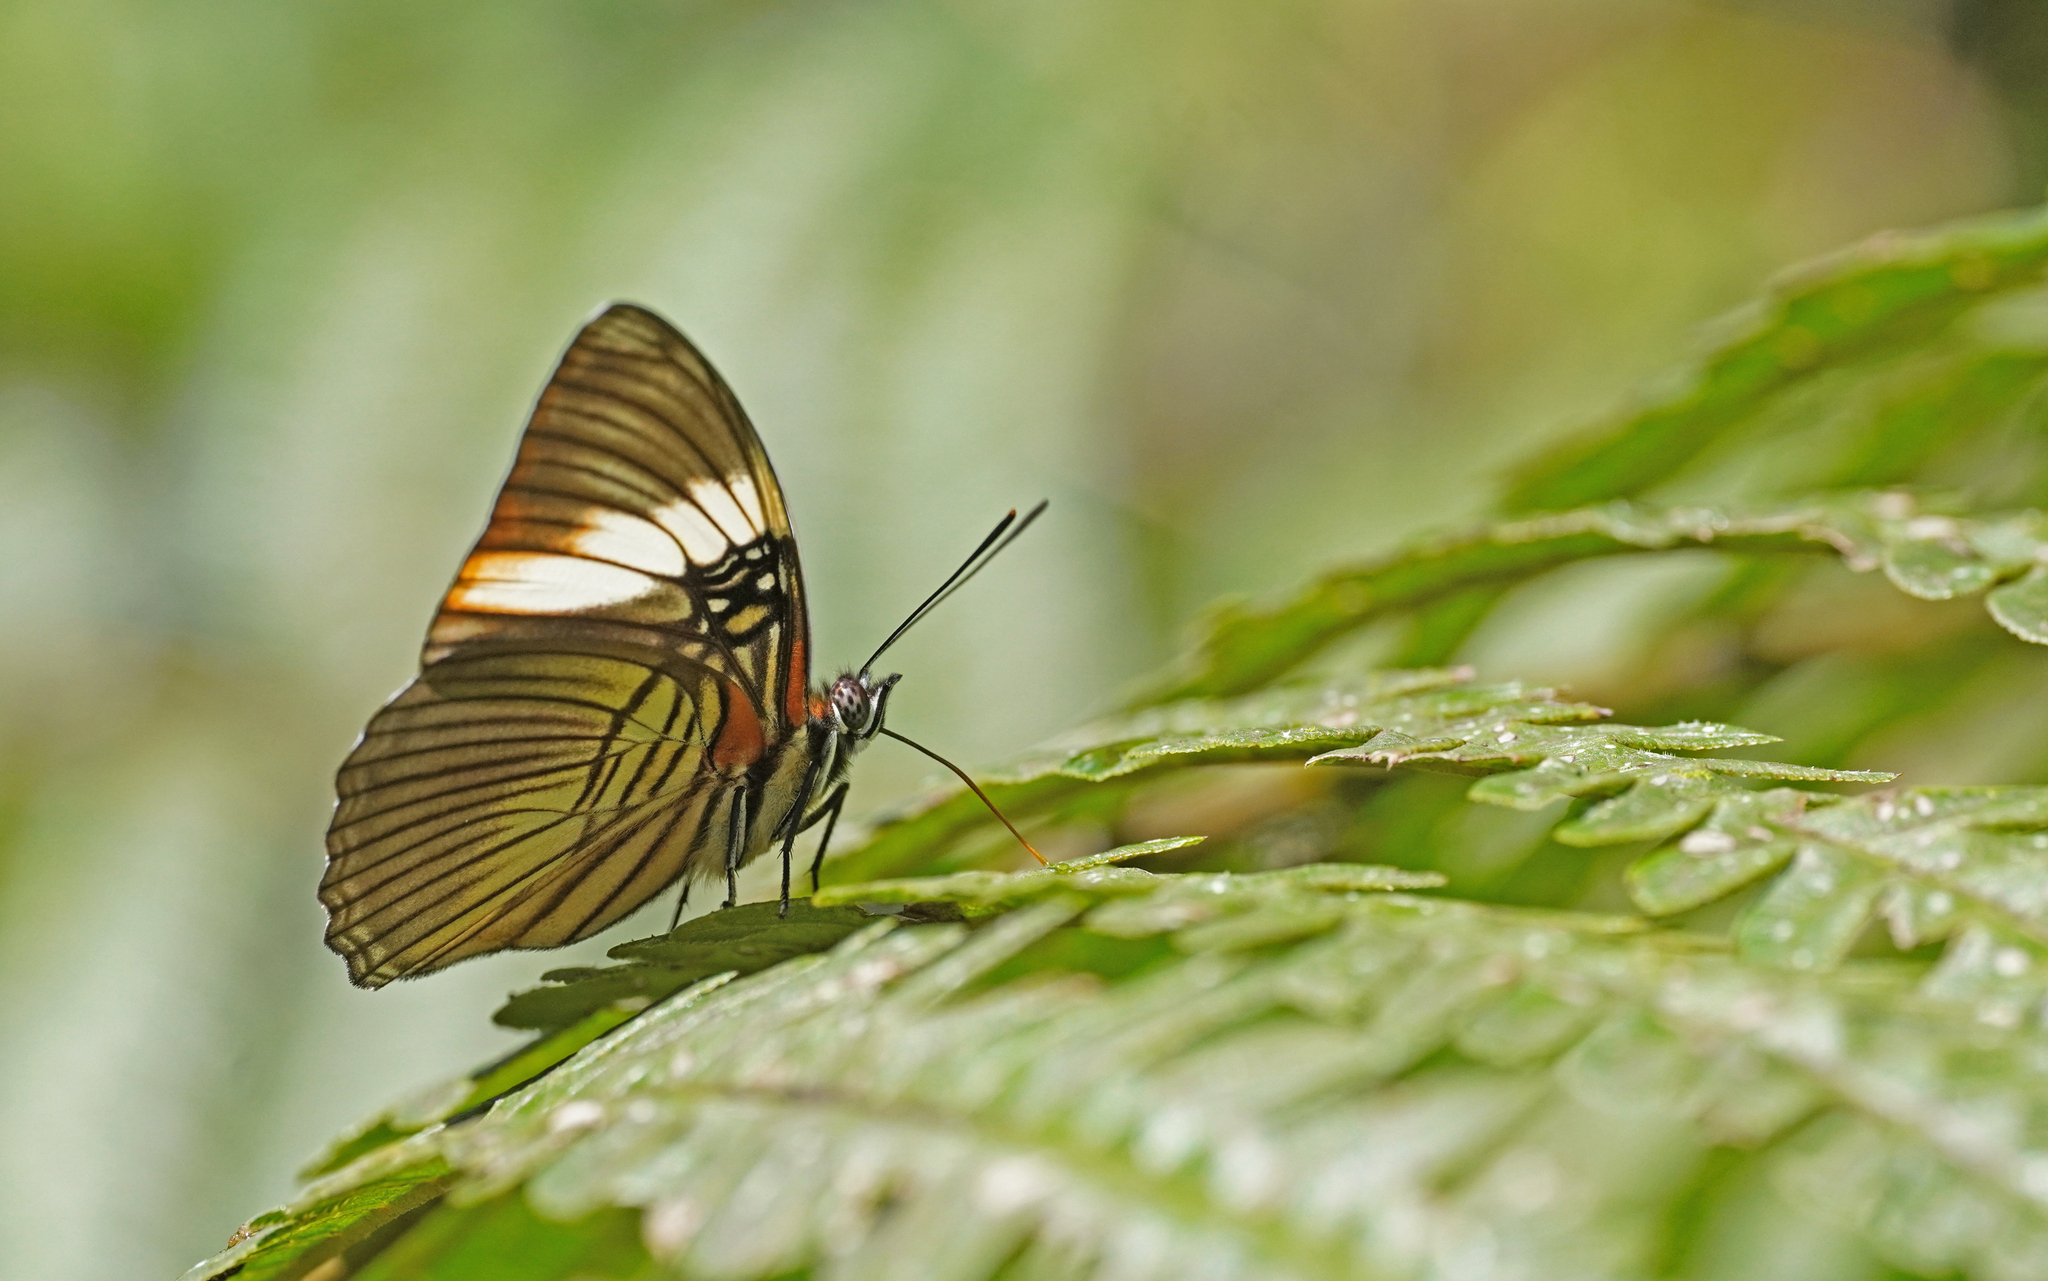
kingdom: Animalia
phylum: Arthropoda
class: Insecta
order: Lepidoptera
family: Nymphalidae
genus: Limenitis
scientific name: Limenitis isis
